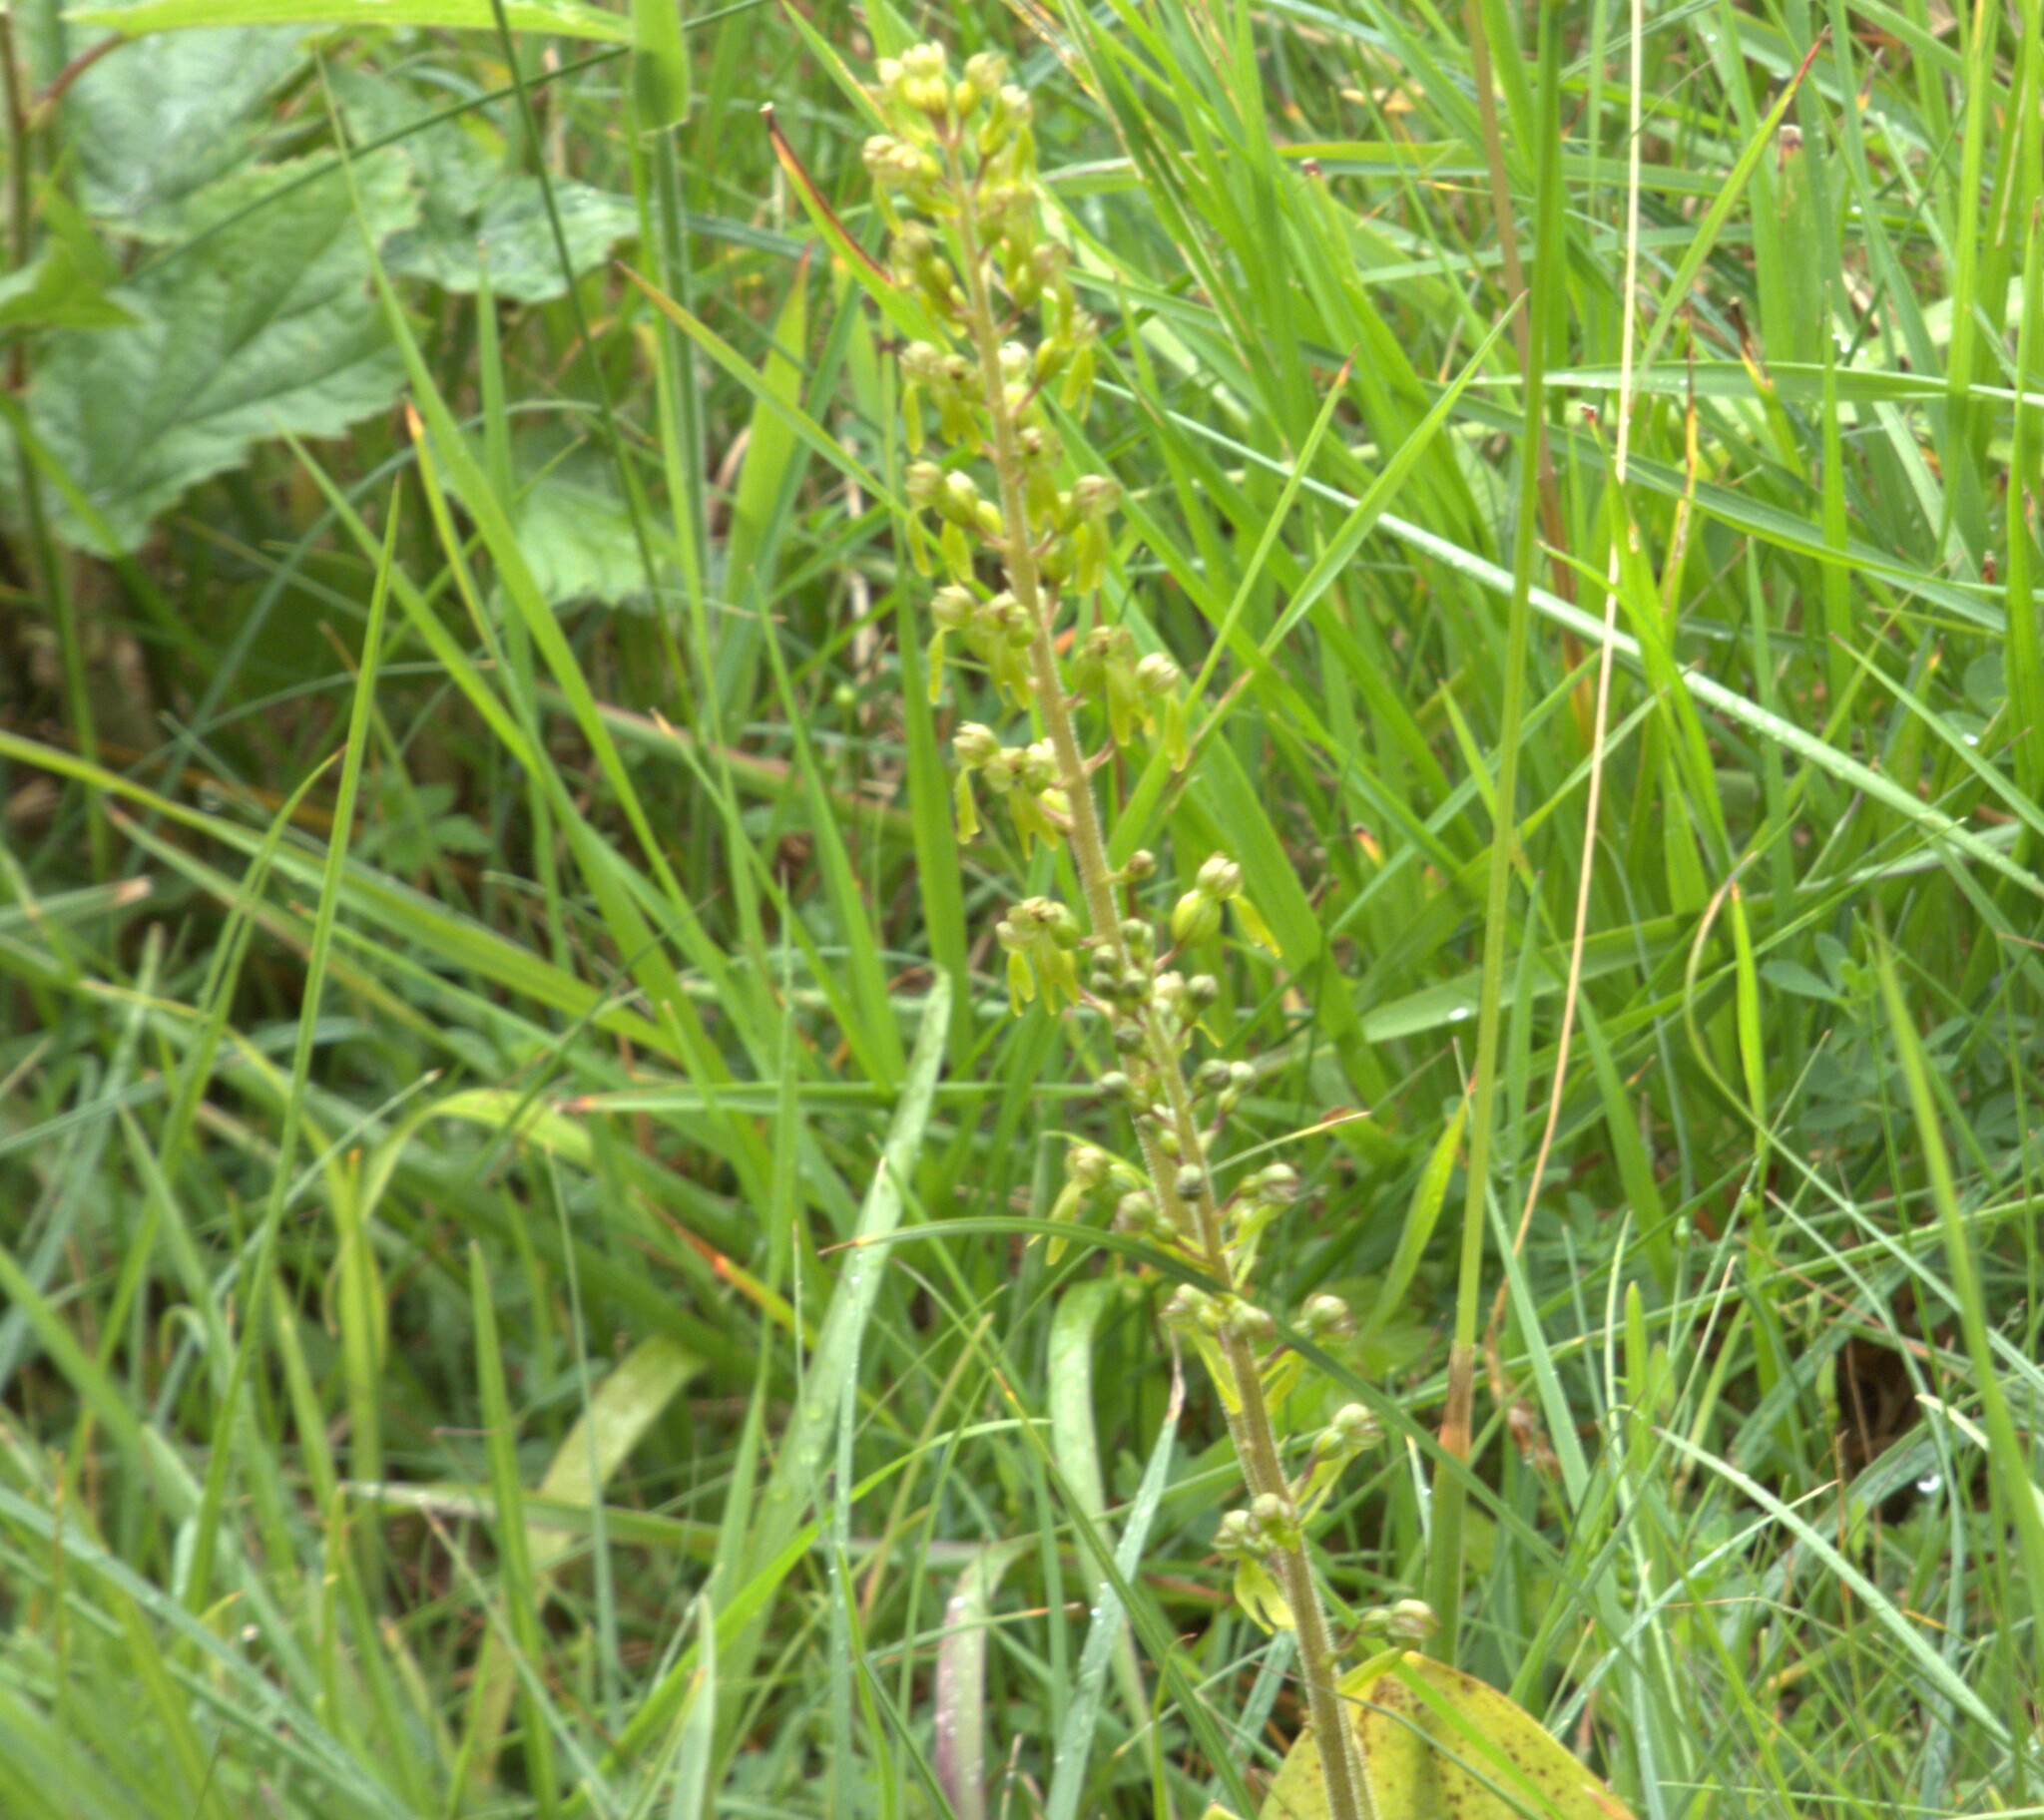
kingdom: Plantae
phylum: Tracheophyta
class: Liliopsida
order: Asparagales
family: Orchidaceae
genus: Neottia
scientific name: Neottia ovata
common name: Common twayblade
